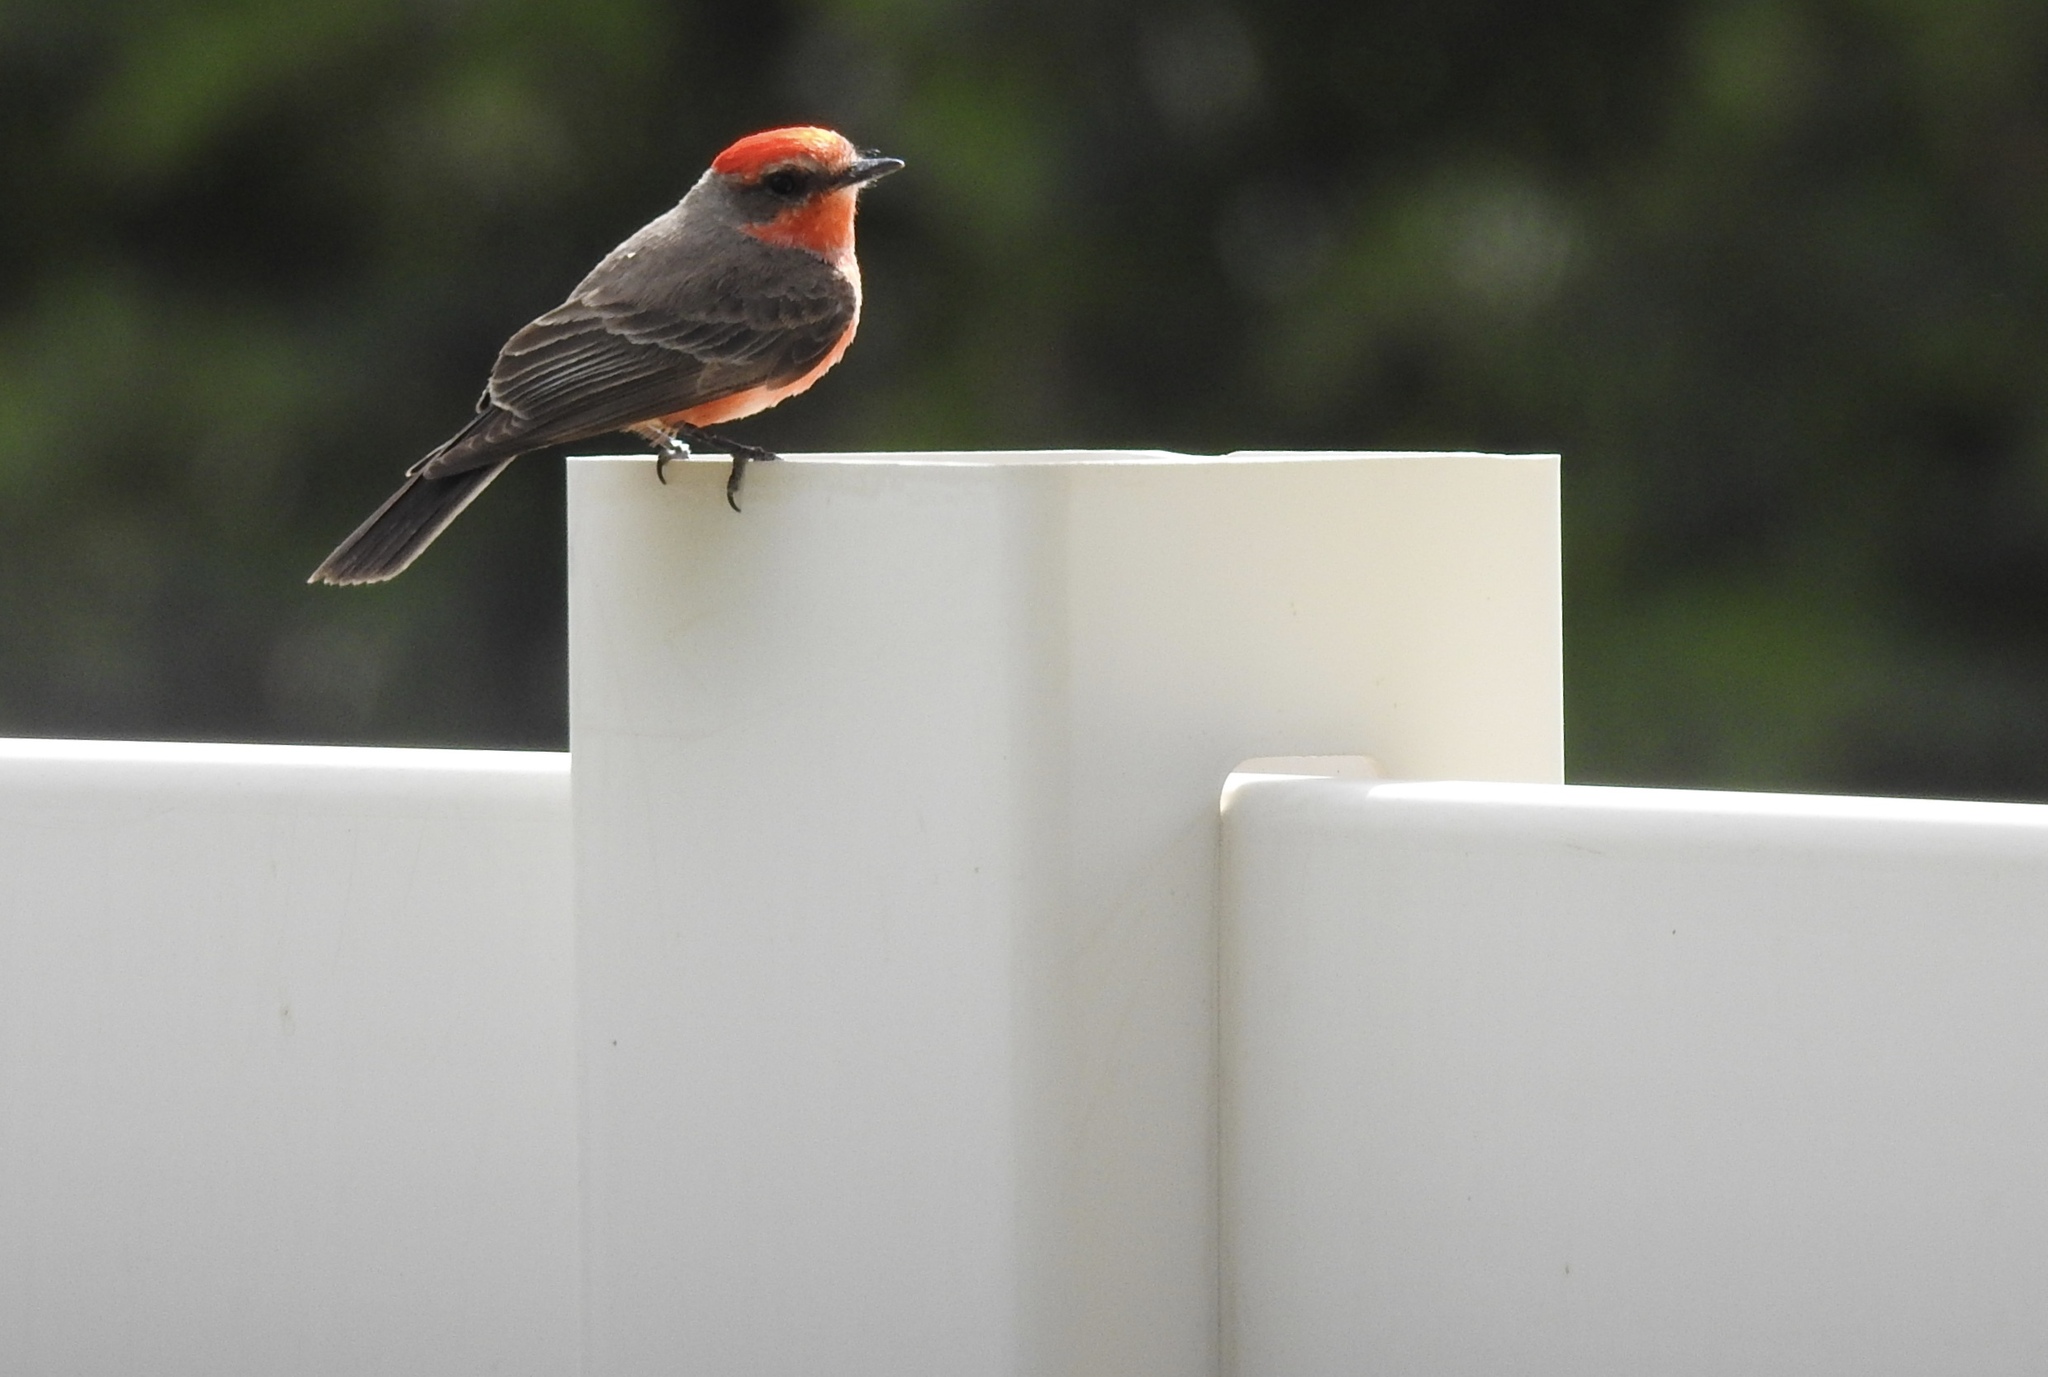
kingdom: Animalia
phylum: Chordata
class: Aves
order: Passeriformes
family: Tyrannidae
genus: Pyrocephalus
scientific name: Pyrocephalus rubinus
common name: Vermilion flycatcher
